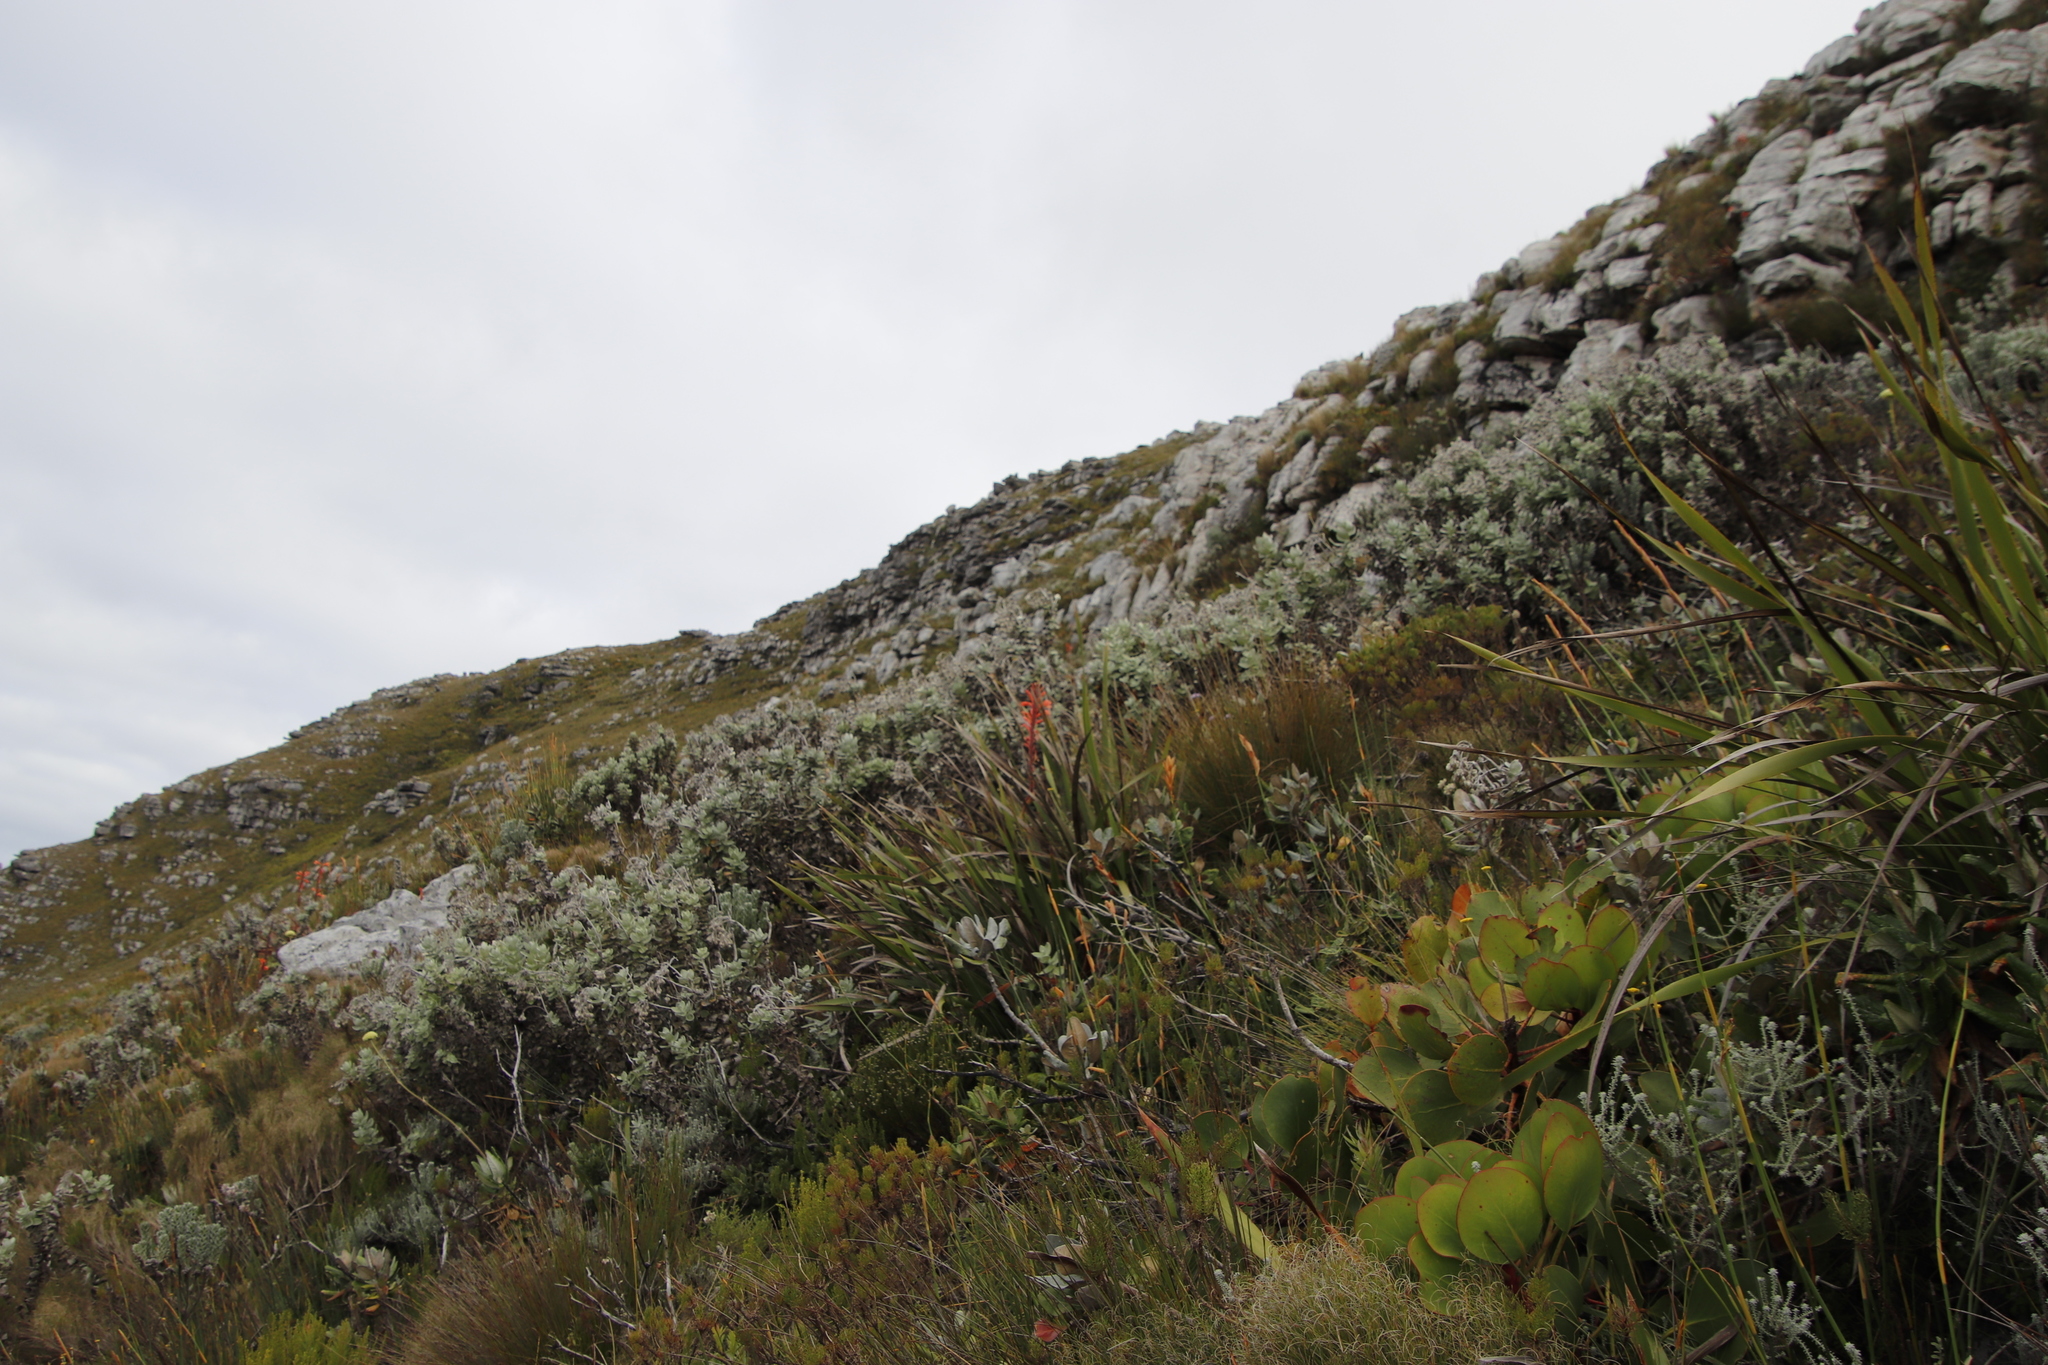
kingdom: Plantae
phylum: Tracheophyta
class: Magnoliopsida
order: Proteales
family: Proteaceae
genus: Protea
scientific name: Protea cynaroides
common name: King protea
